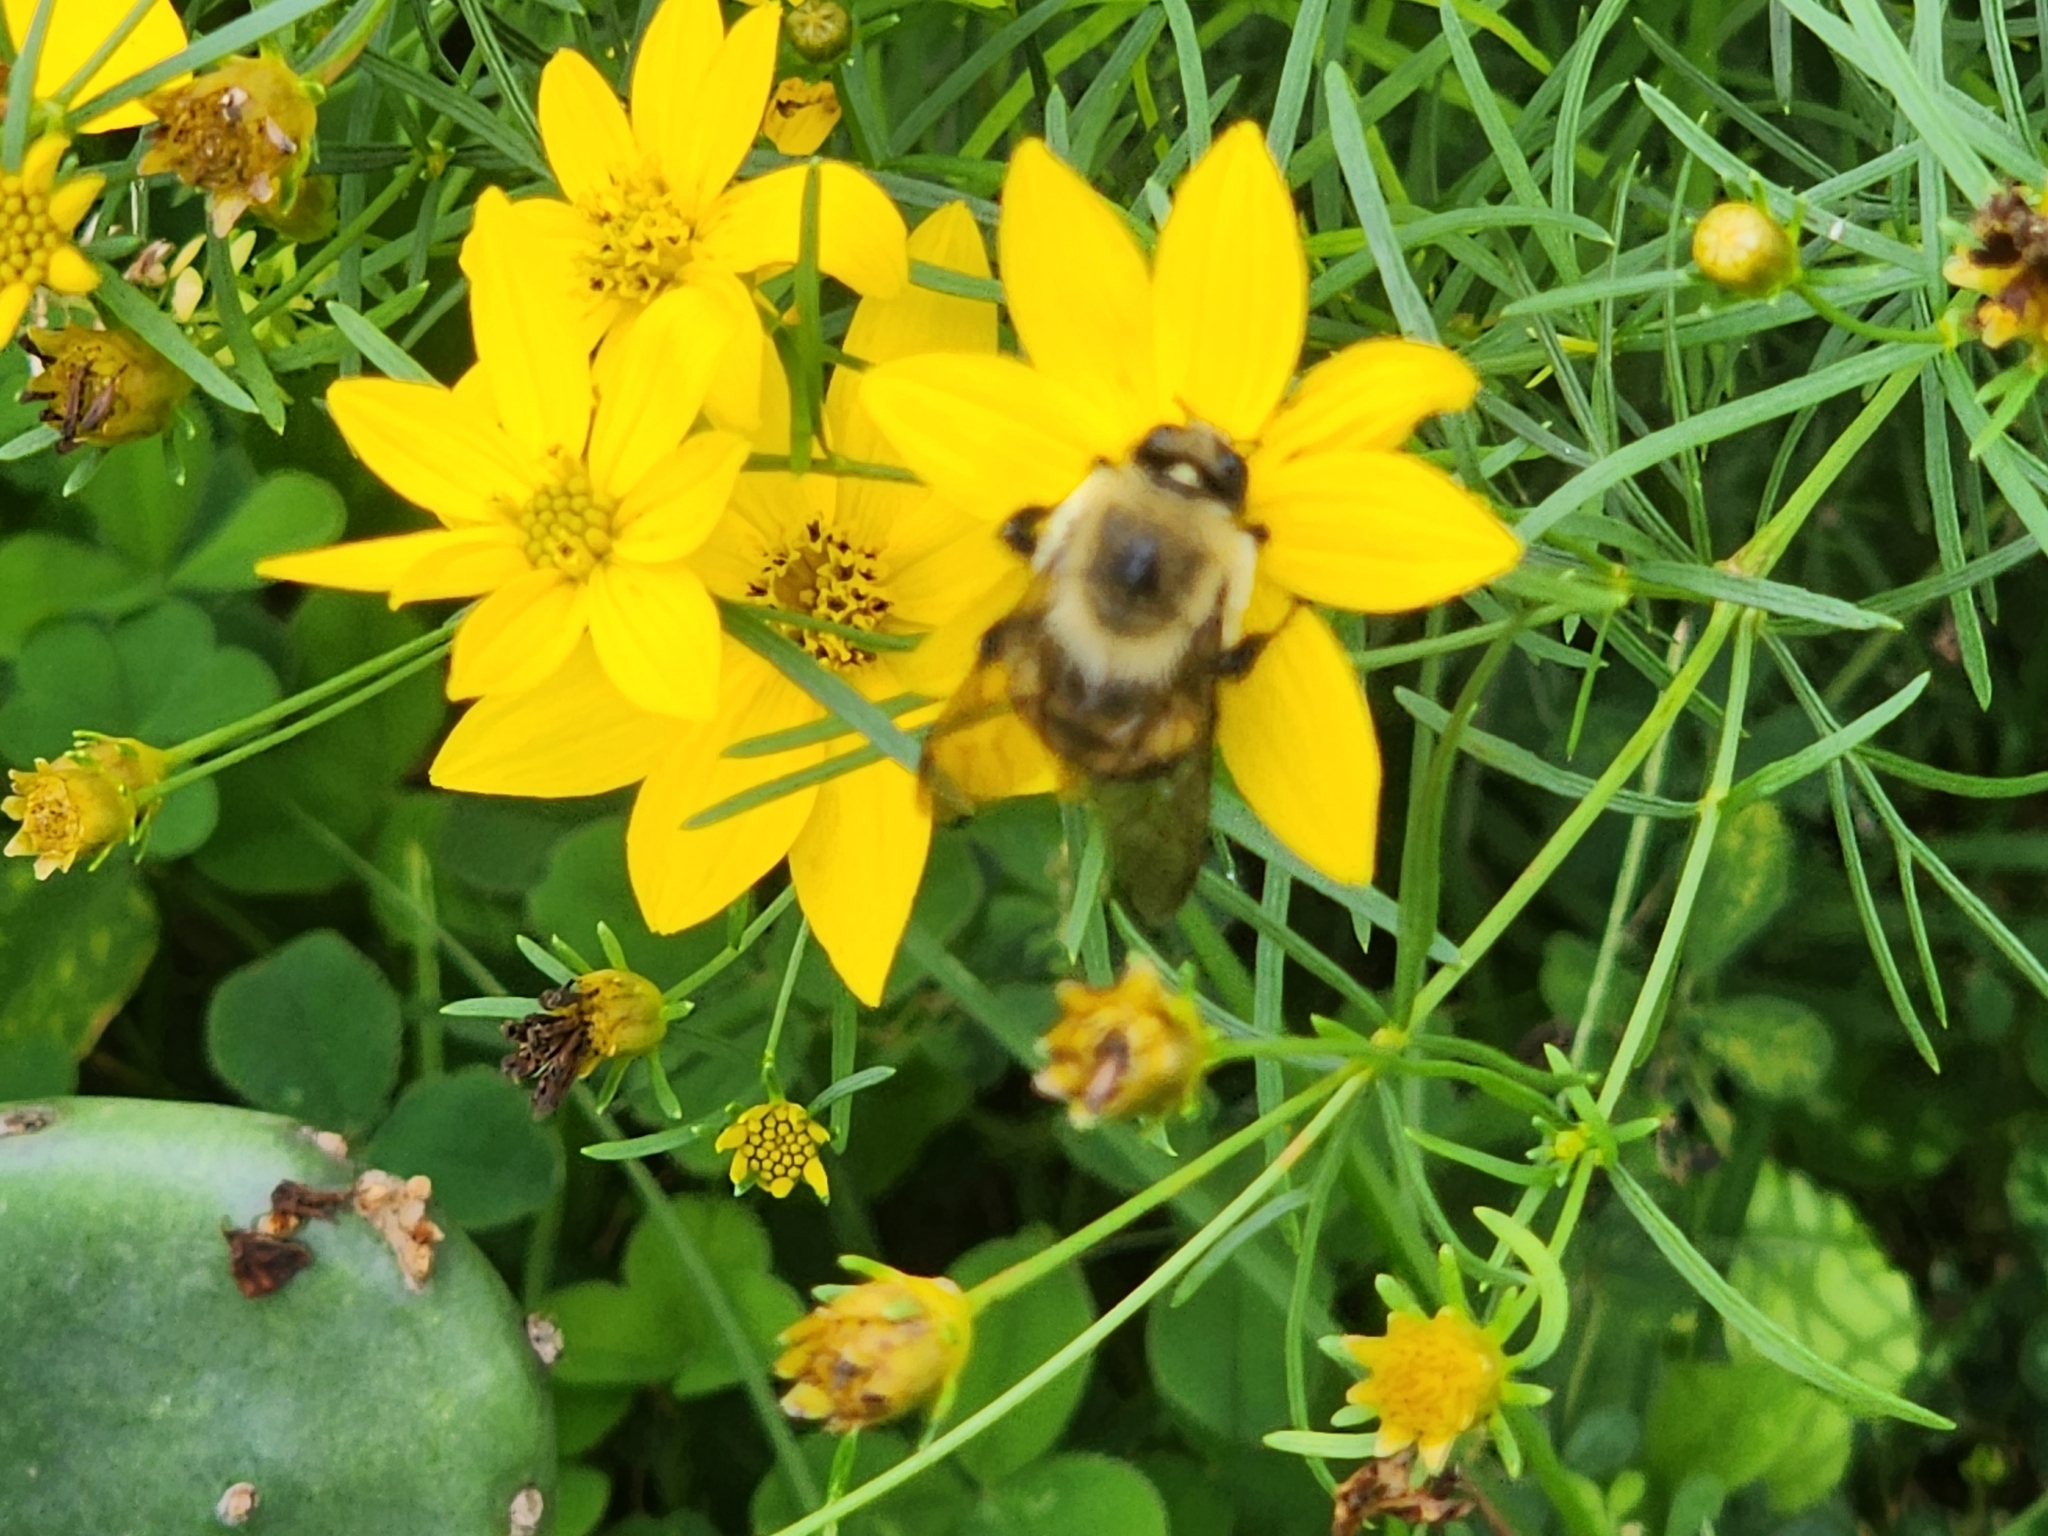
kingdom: Animalia
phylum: Arthropoda
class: Insecta
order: Hymenoptera
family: Apidae
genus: Bombus
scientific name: Bombus griseocollis
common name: Brown-belted bumble bee
